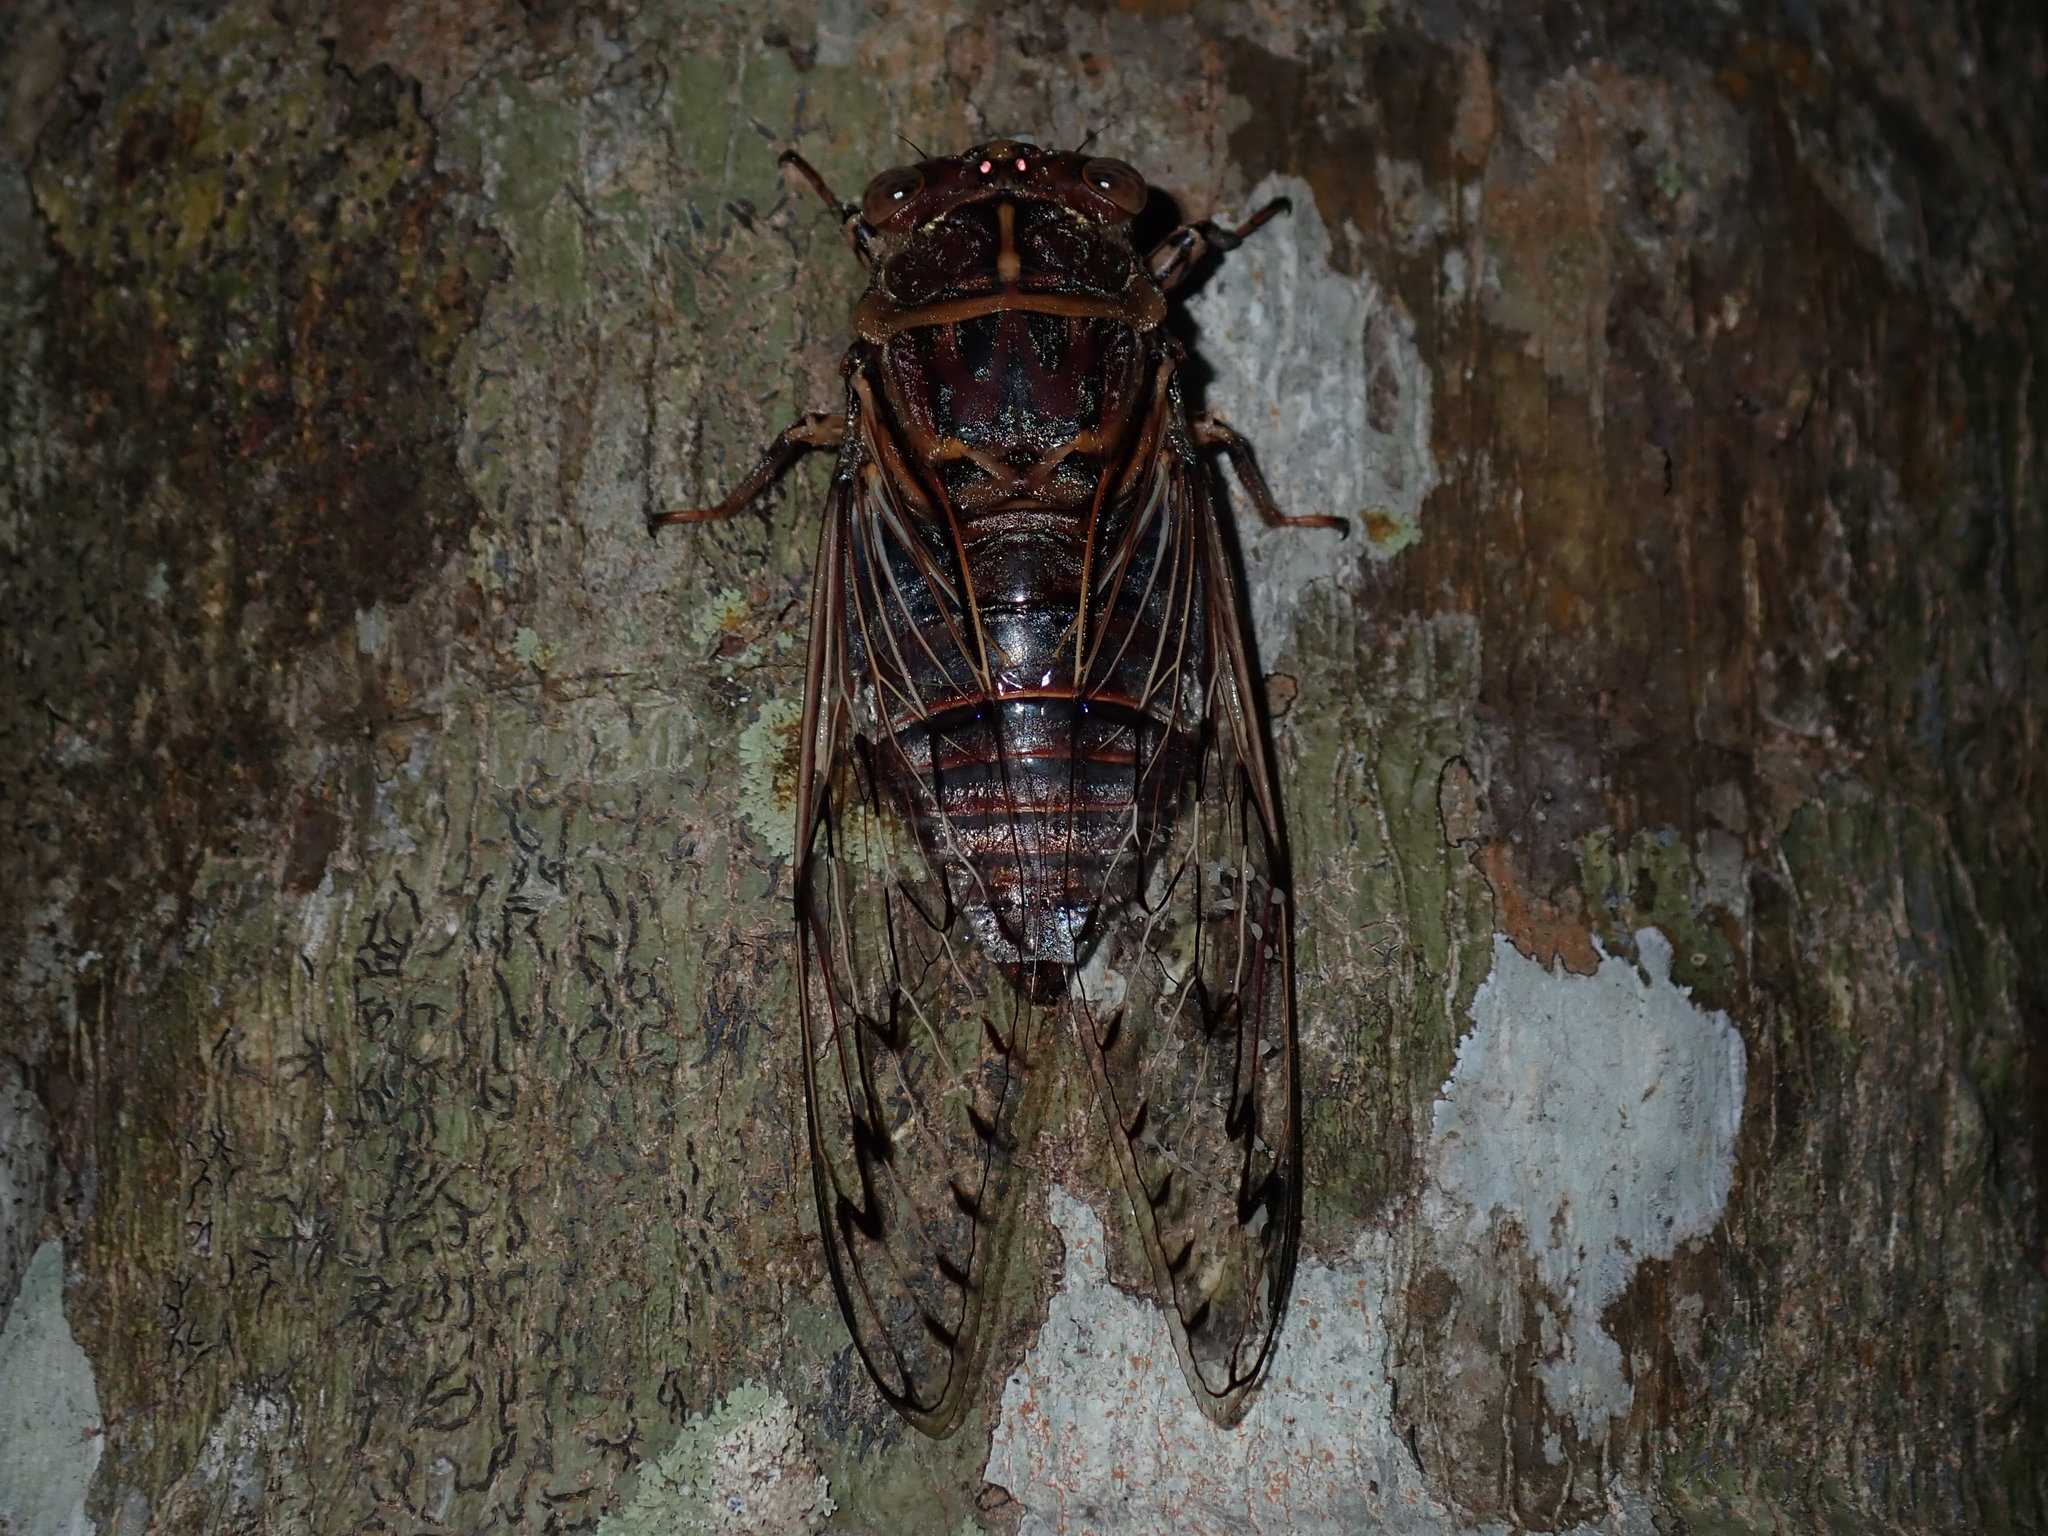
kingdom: Animalia
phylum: Arthropoda
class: Insecta
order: Hemiptera
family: Cicadidae
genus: Henicopsaltria
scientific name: Henicopsaltria eydouxii
